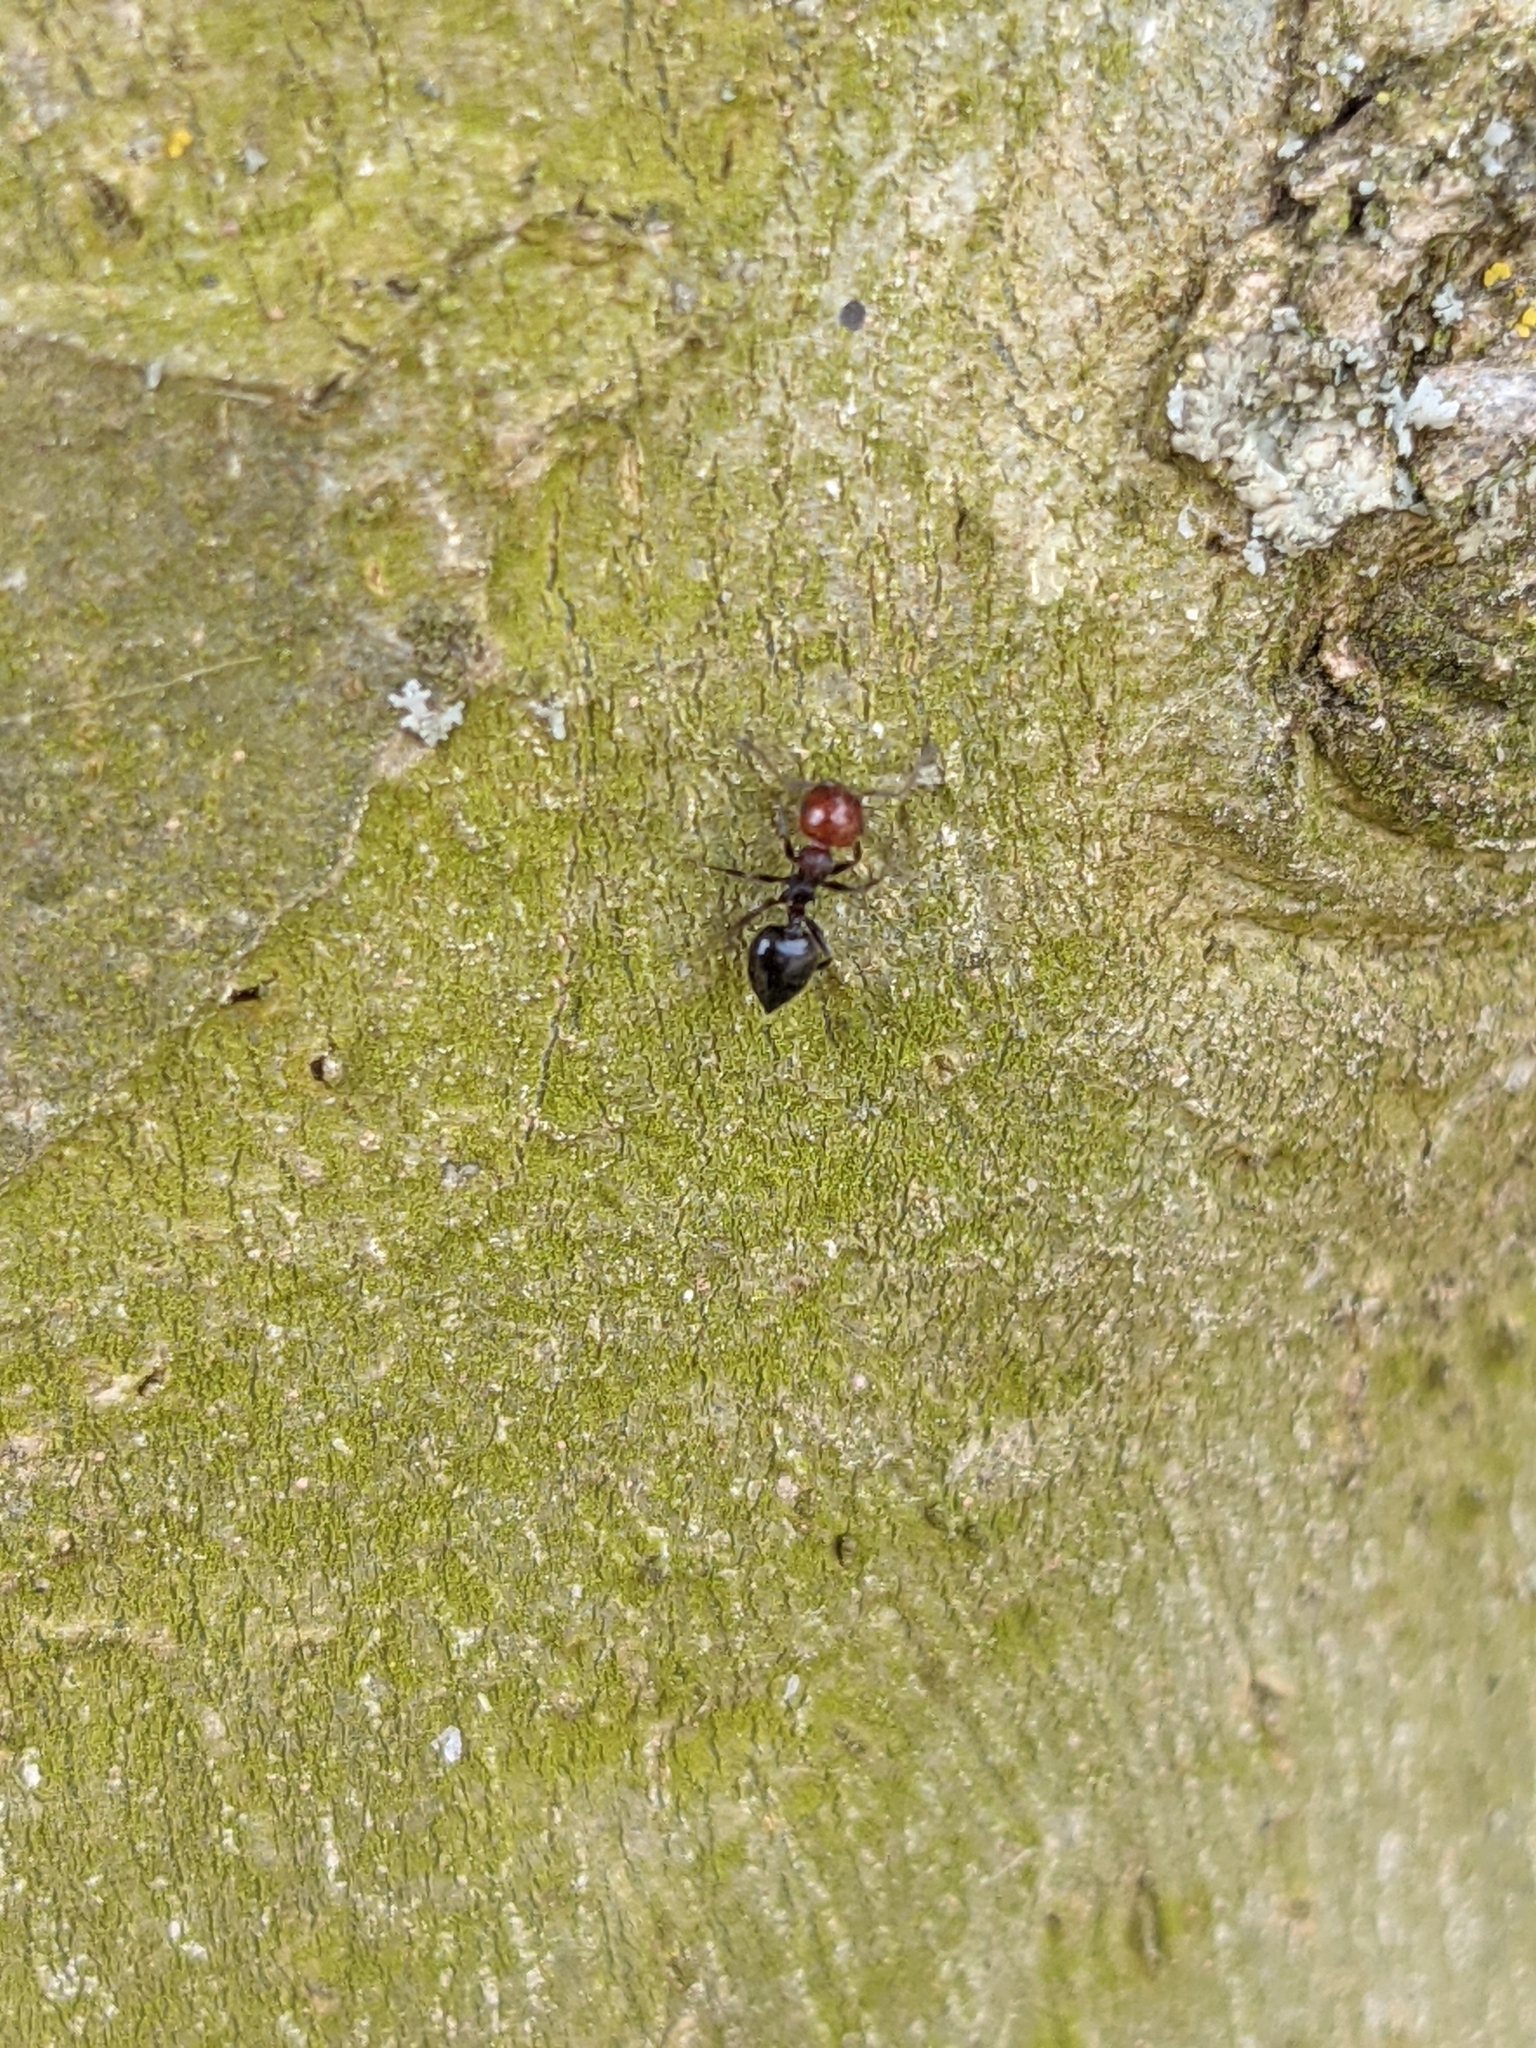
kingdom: Animalia
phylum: Arthropoda
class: Insecta
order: Hymenoptera
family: Formicidae
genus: Crematogaster
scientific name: Crematogaster scutellaris
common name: Fourmi du liège
